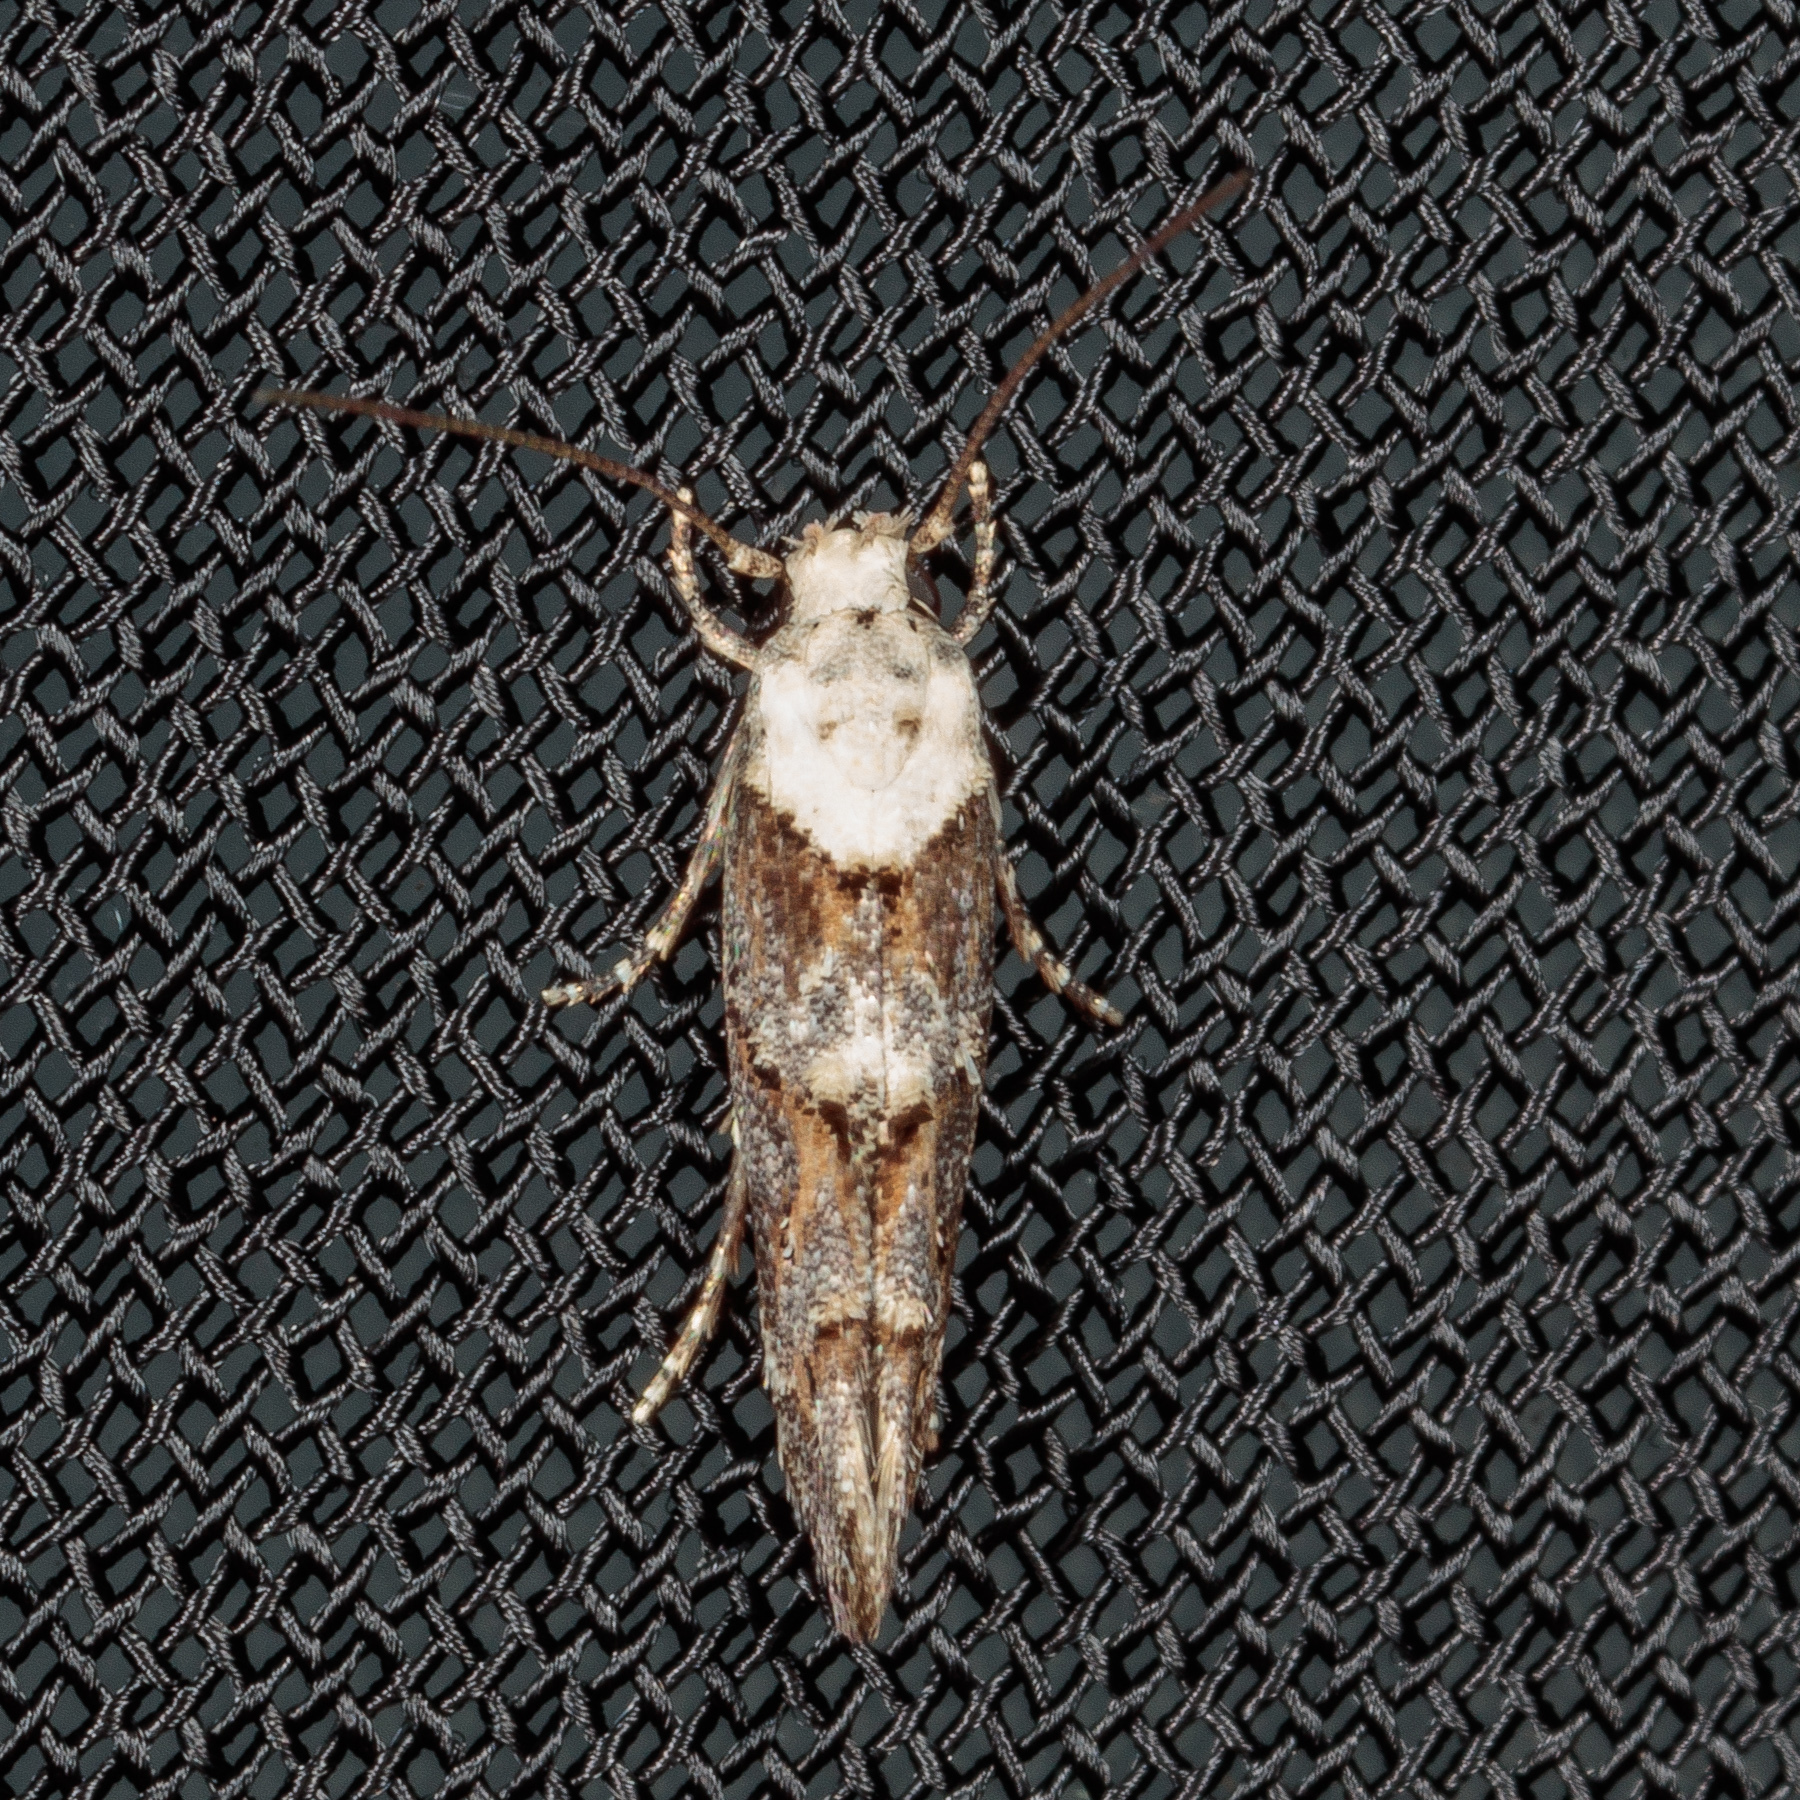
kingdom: Animalia
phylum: Arthropoda
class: Insecta
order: Lepidoptera
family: Momphidae
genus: Mompha
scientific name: Mompha albocapitella
